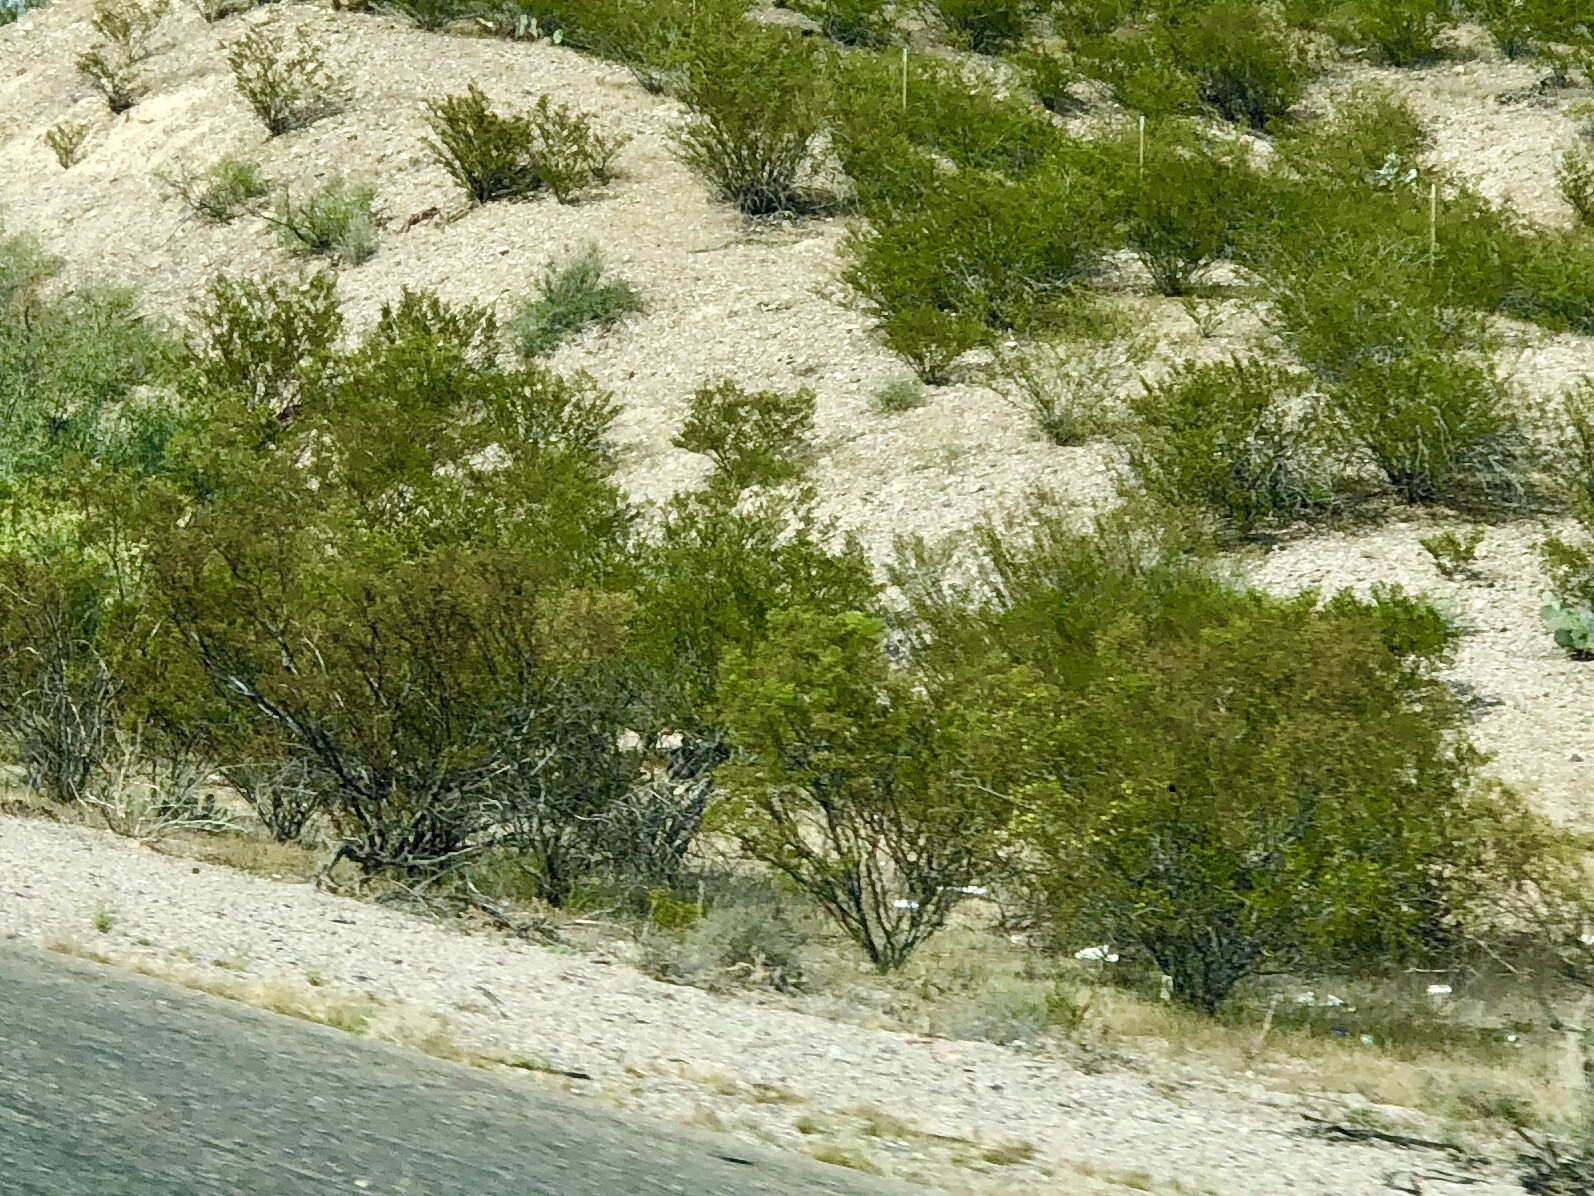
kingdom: Plantae
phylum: Tracheophyta
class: Magnoliopsida
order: Zygophyllales
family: Zygophyllaceae
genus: Larrea
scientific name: Larrea tridentata
